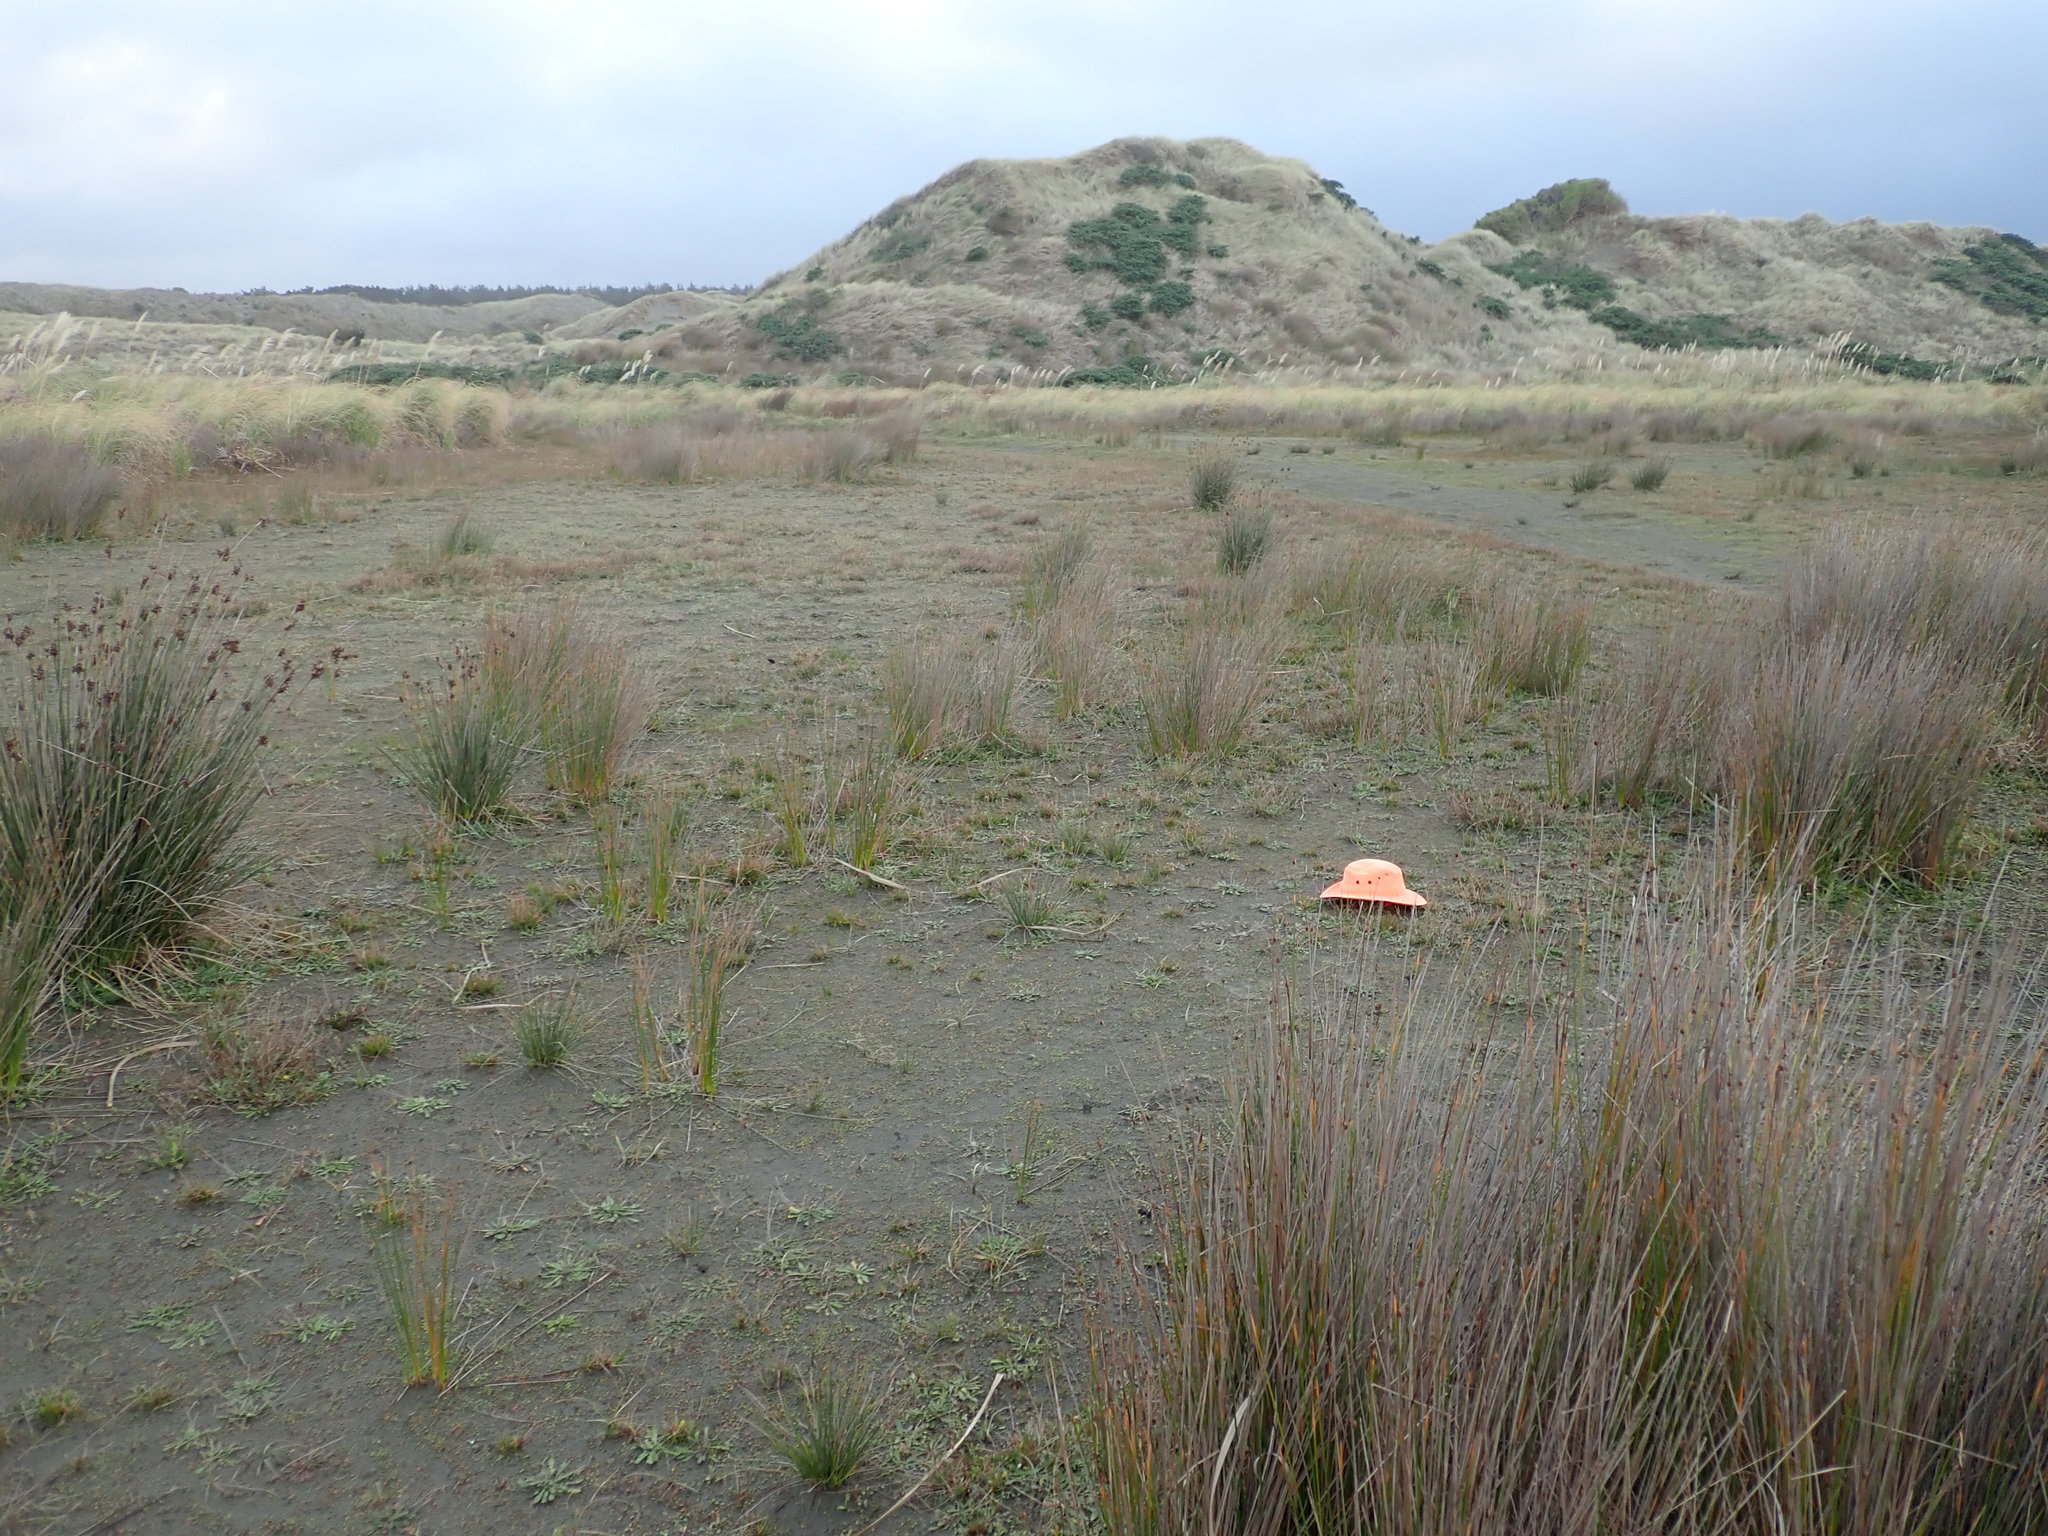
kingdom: Plantae
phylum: Tracheophyta
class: Liliopsida
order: Poales
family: Juncaceae
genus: Juncus
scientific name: Juncus caespiticius
